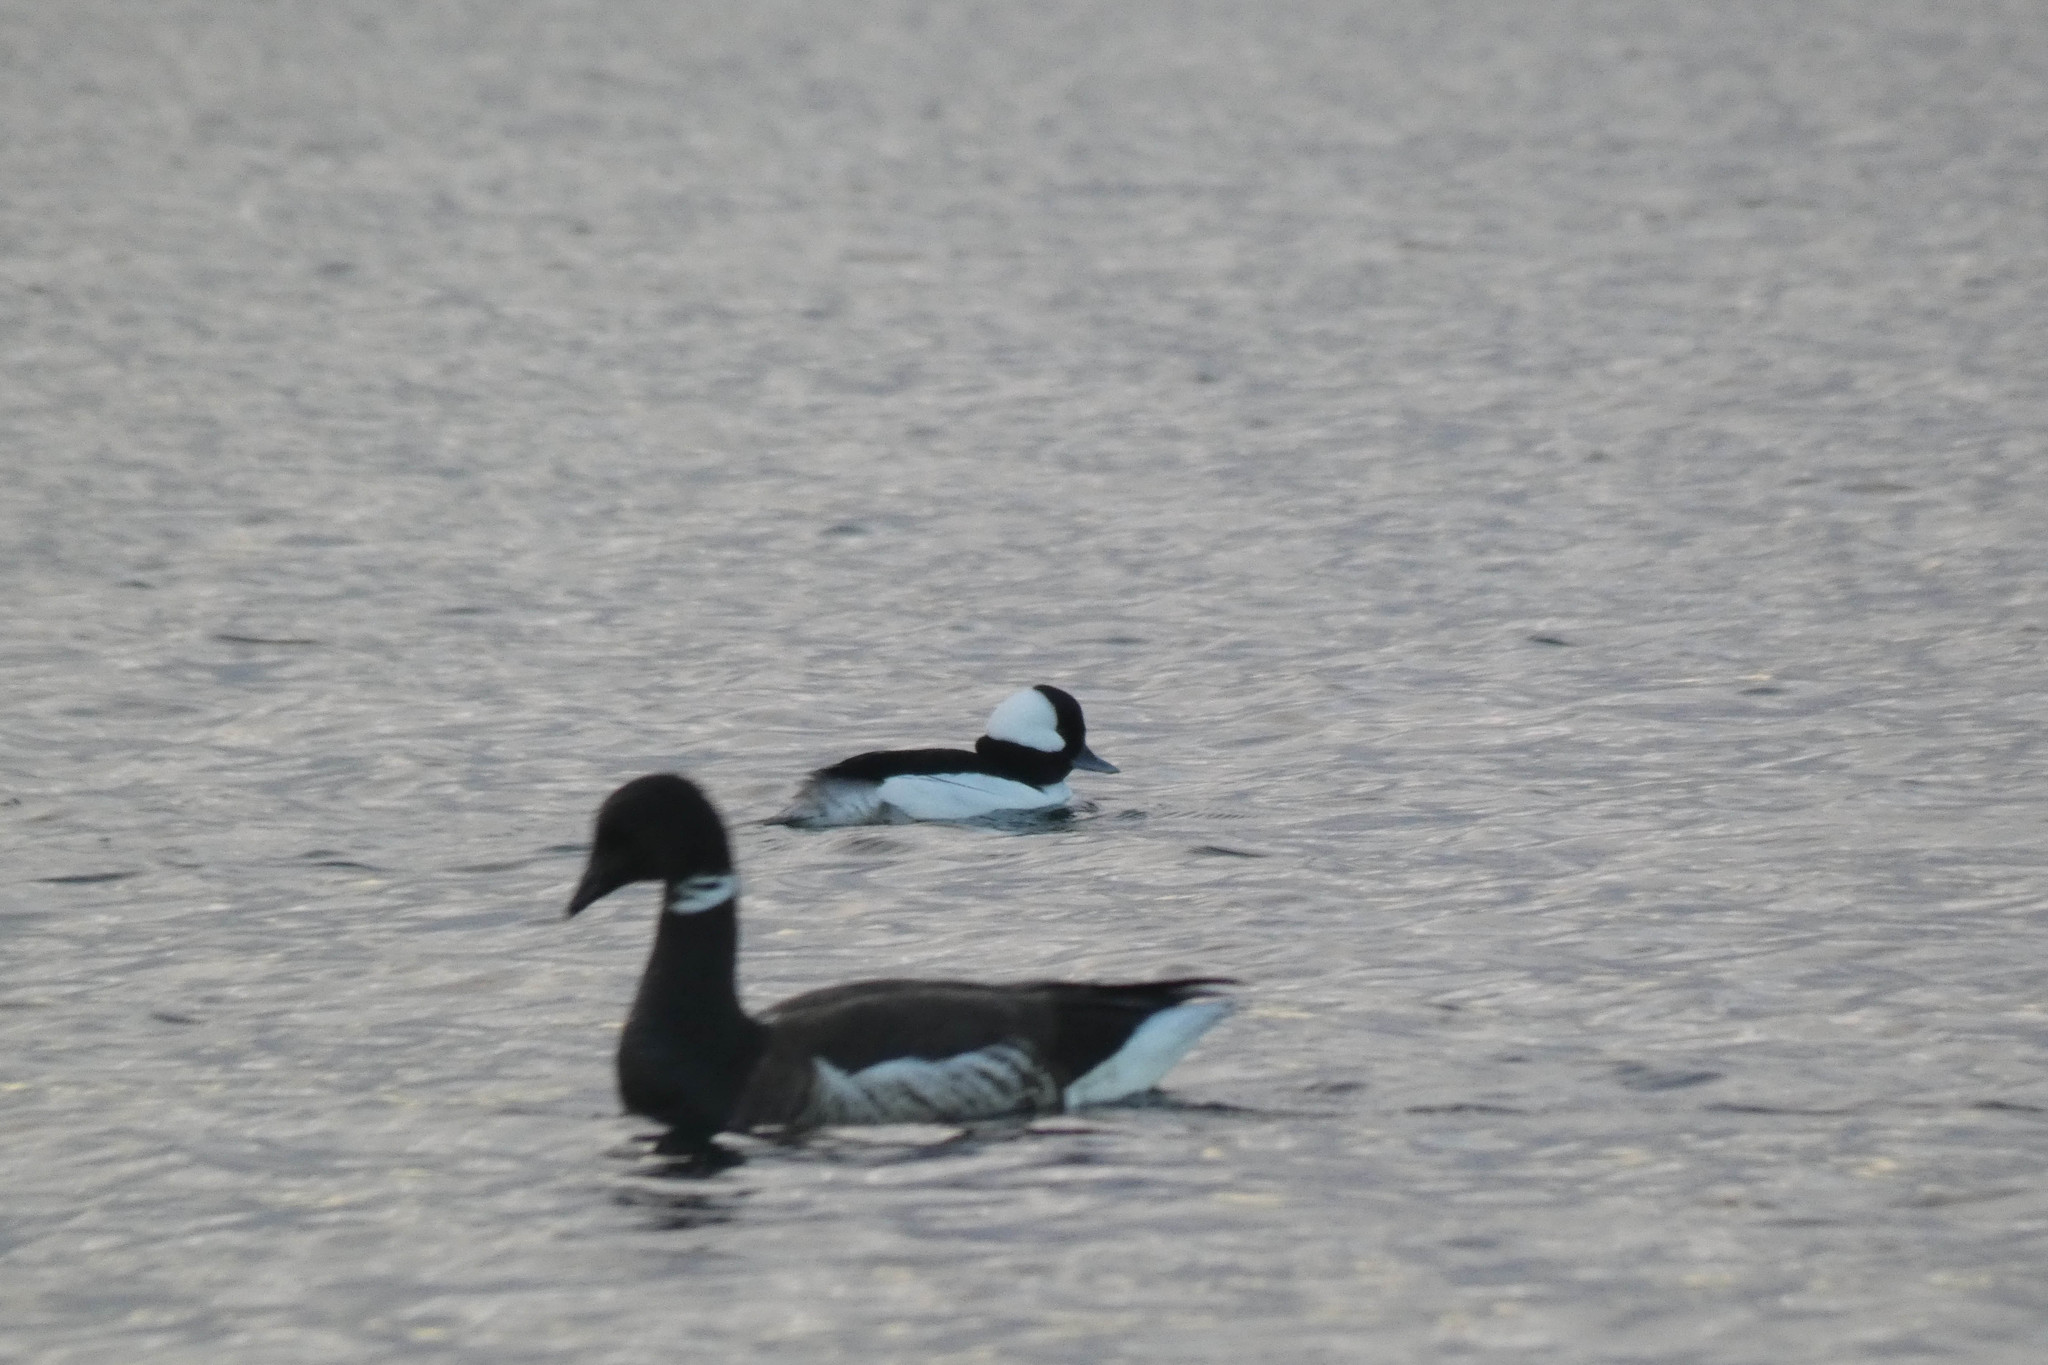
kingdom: Animalia
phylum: Chordata
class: Aves
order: Anseriformes
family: Anatidae
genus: Branta
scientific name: Branta bernicla
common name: Brant goose
